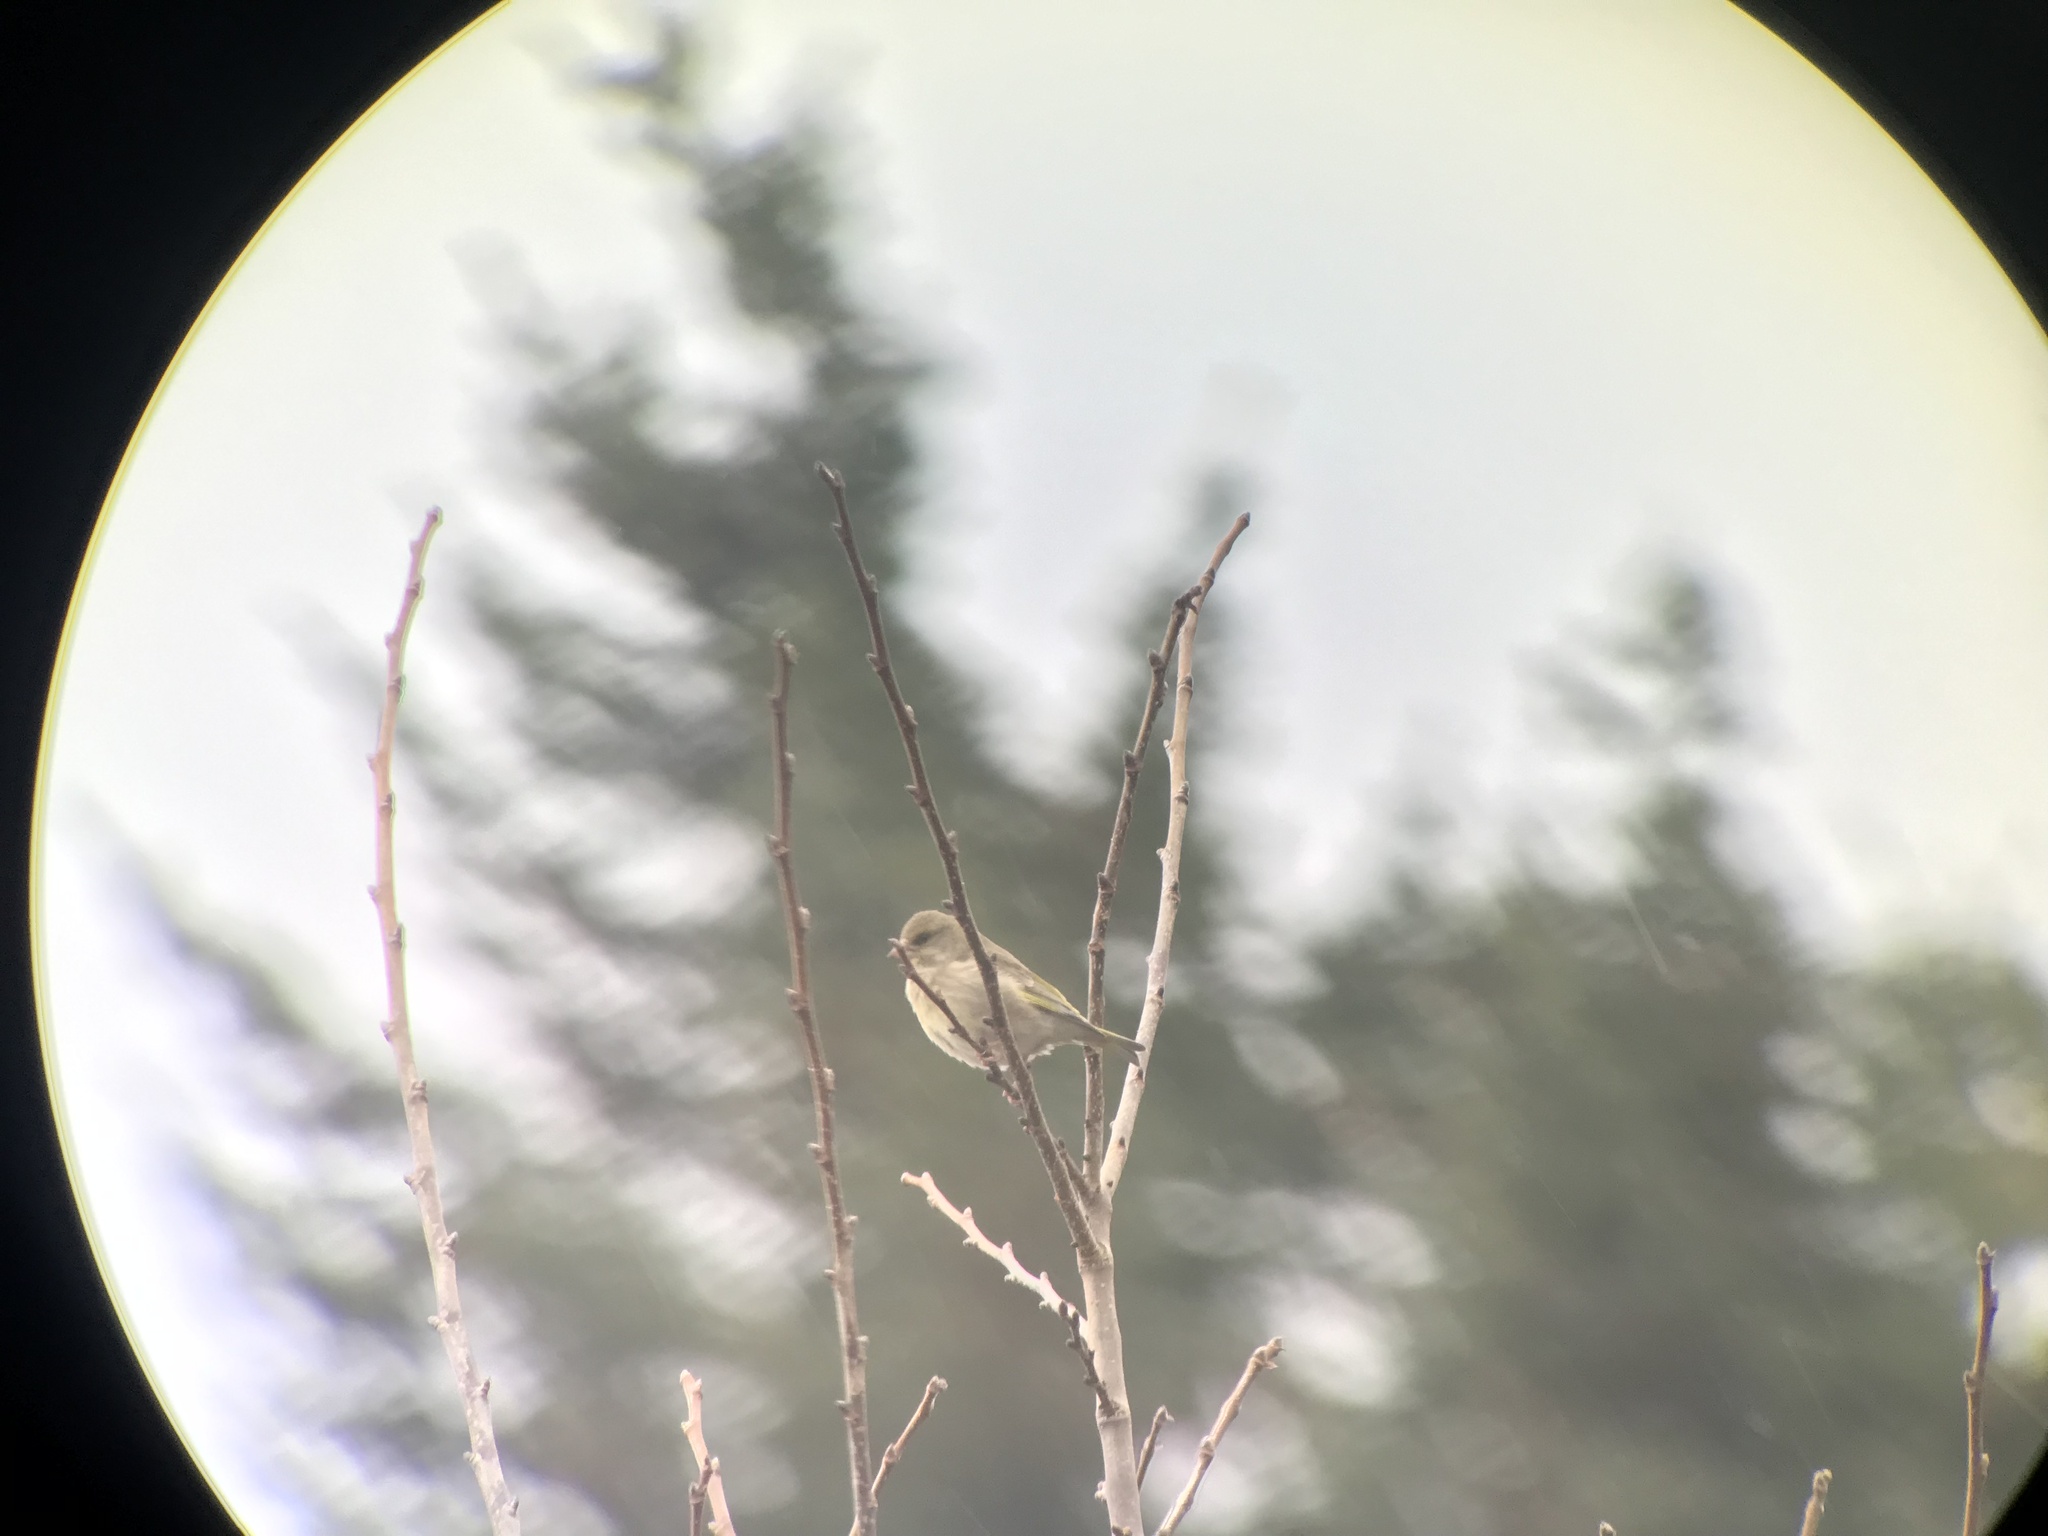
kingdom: Plantae
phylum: Tracheophyta
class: Liliopsida
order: Poales
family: Poaceae
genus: Chloris
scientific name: Chloris chloris
